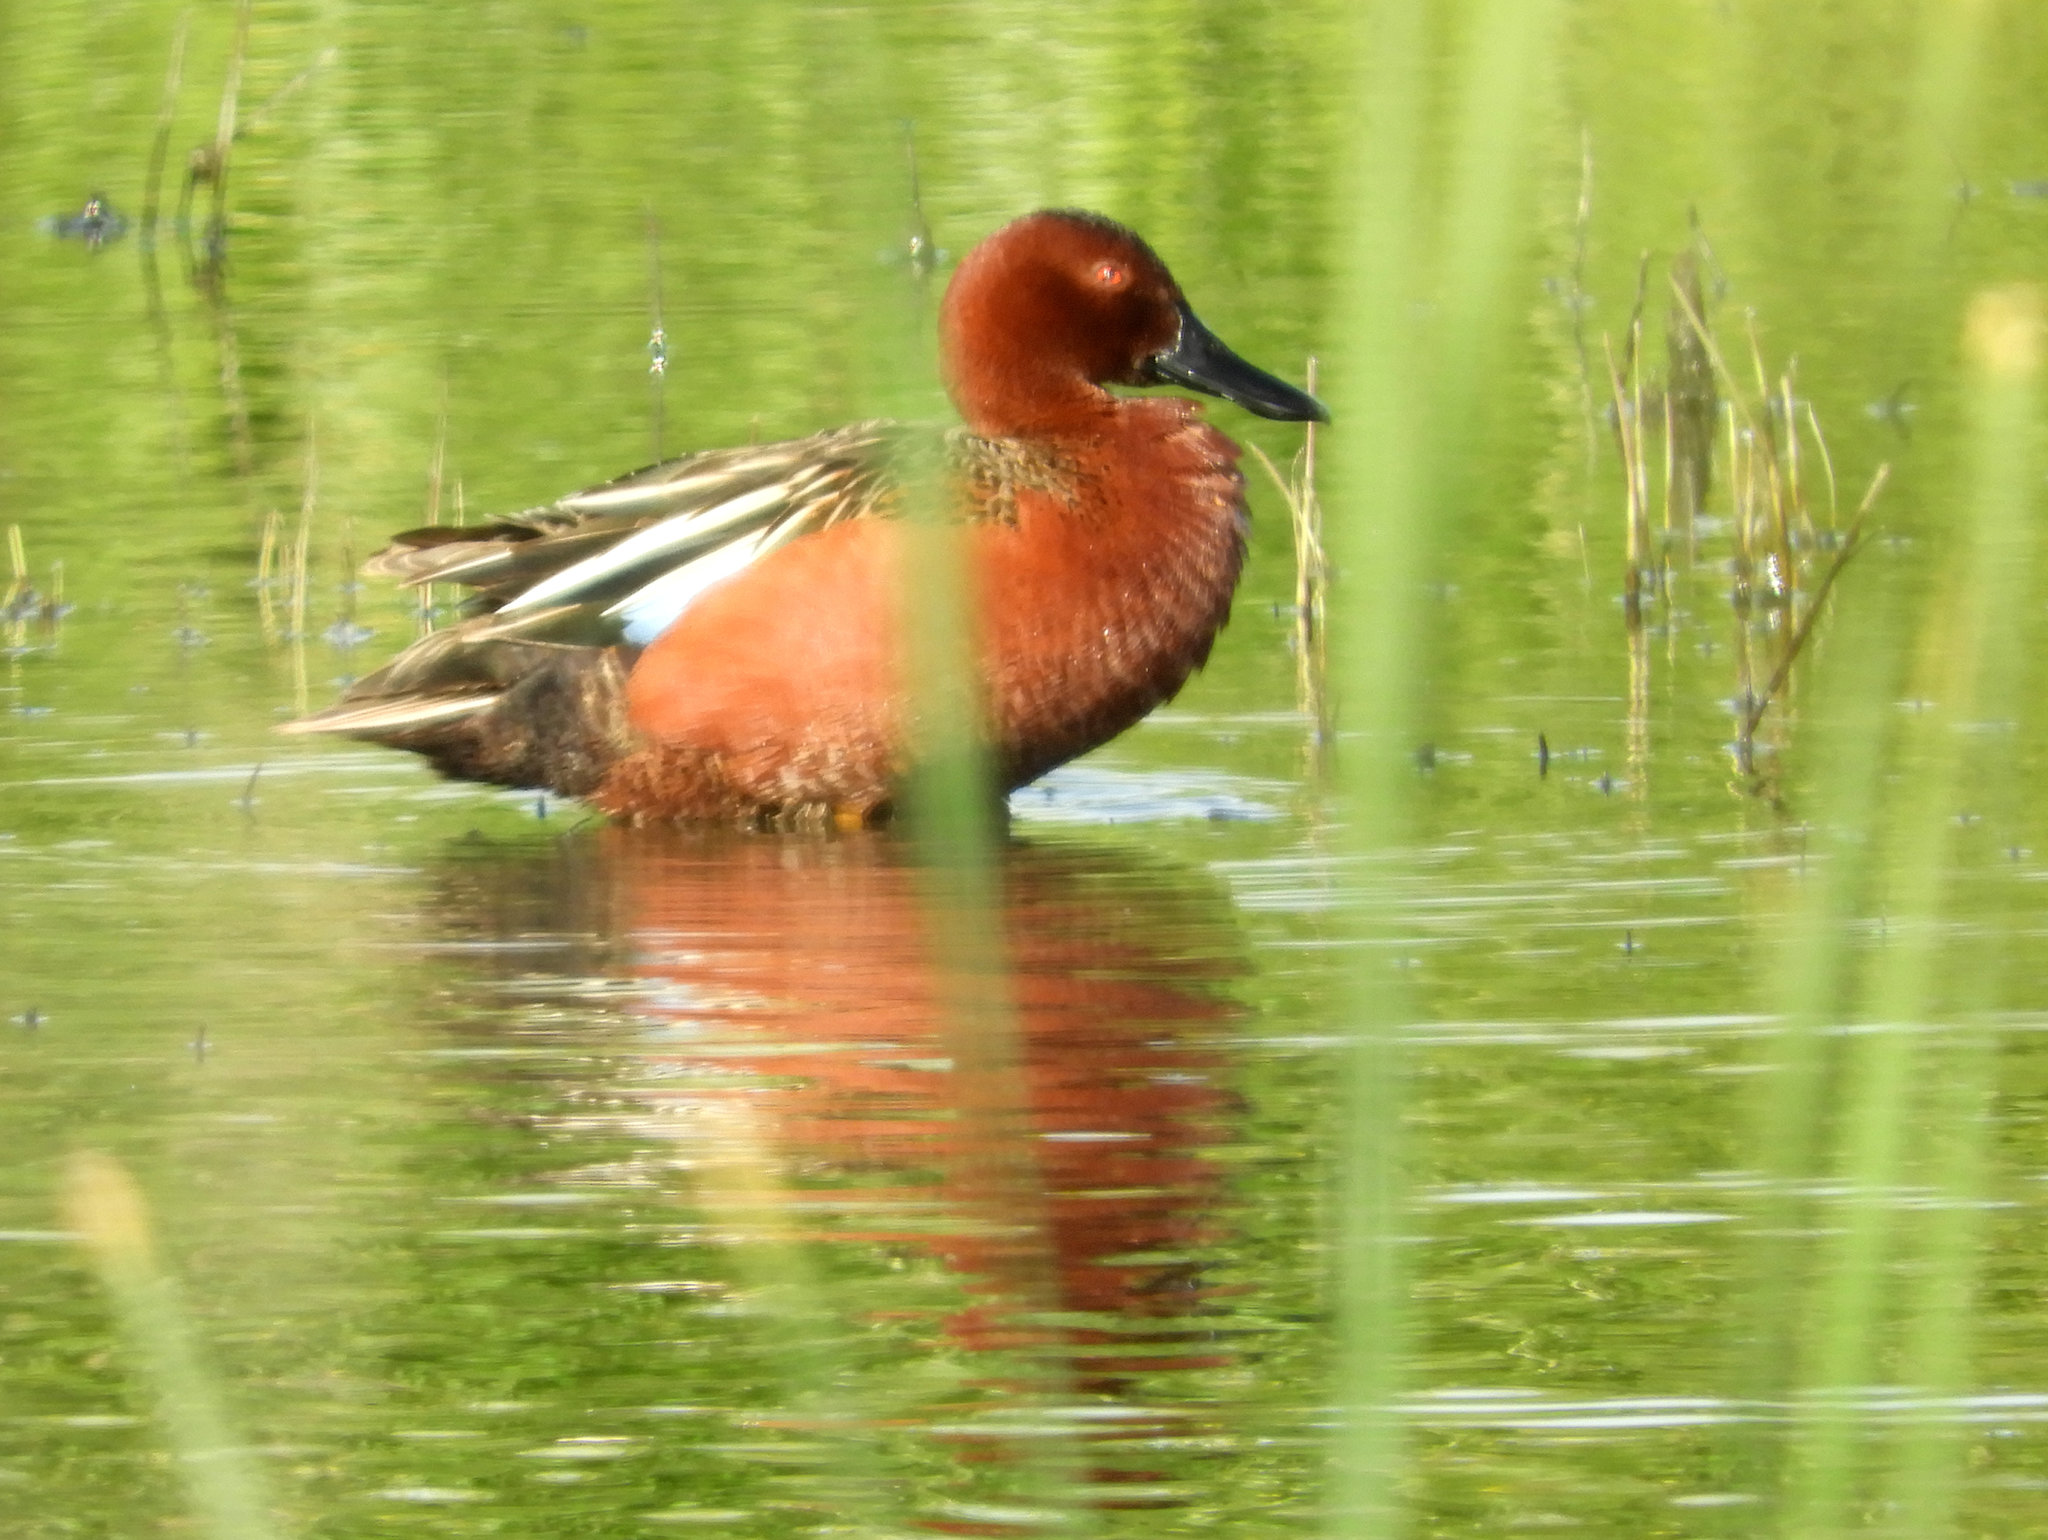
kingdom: Animalia
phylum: Chordata
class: Aves
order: Anseriformes
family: Anatidae
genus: Spatula
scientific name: Spatula cyanoptera
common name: Cinnamon teal
